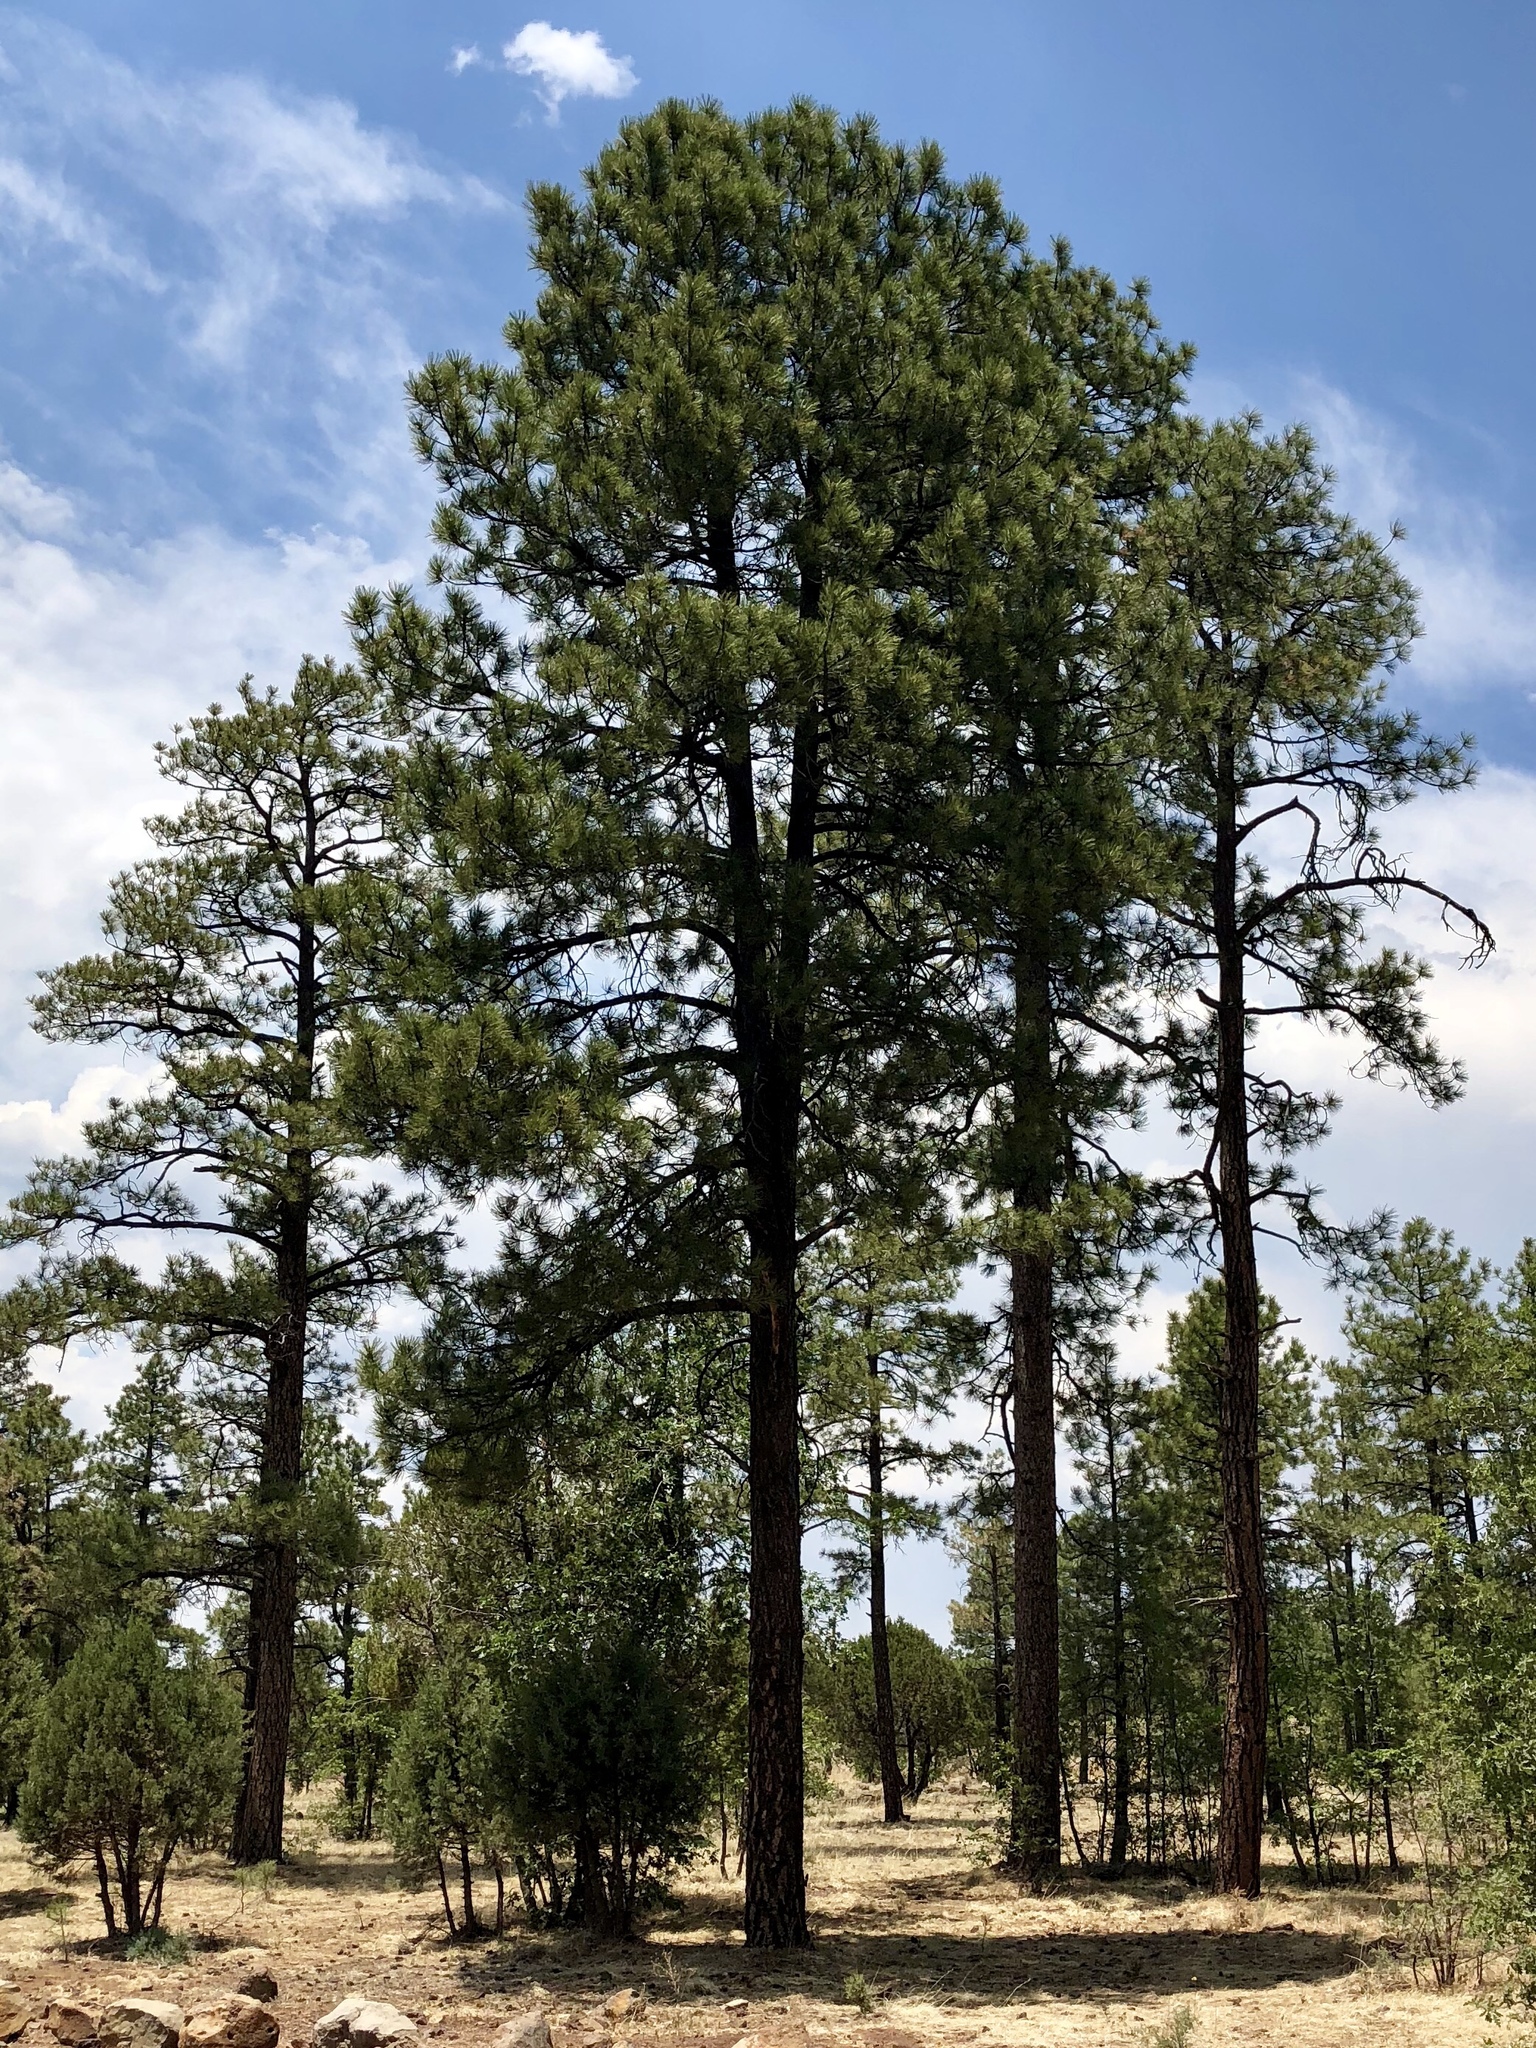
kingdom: Plantae
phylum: Tracheophyta
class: Pinopsida
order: Pinales
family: Pinaceae
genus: Pinus
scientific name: Pinus ponderosa
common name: Western yellow-pine
